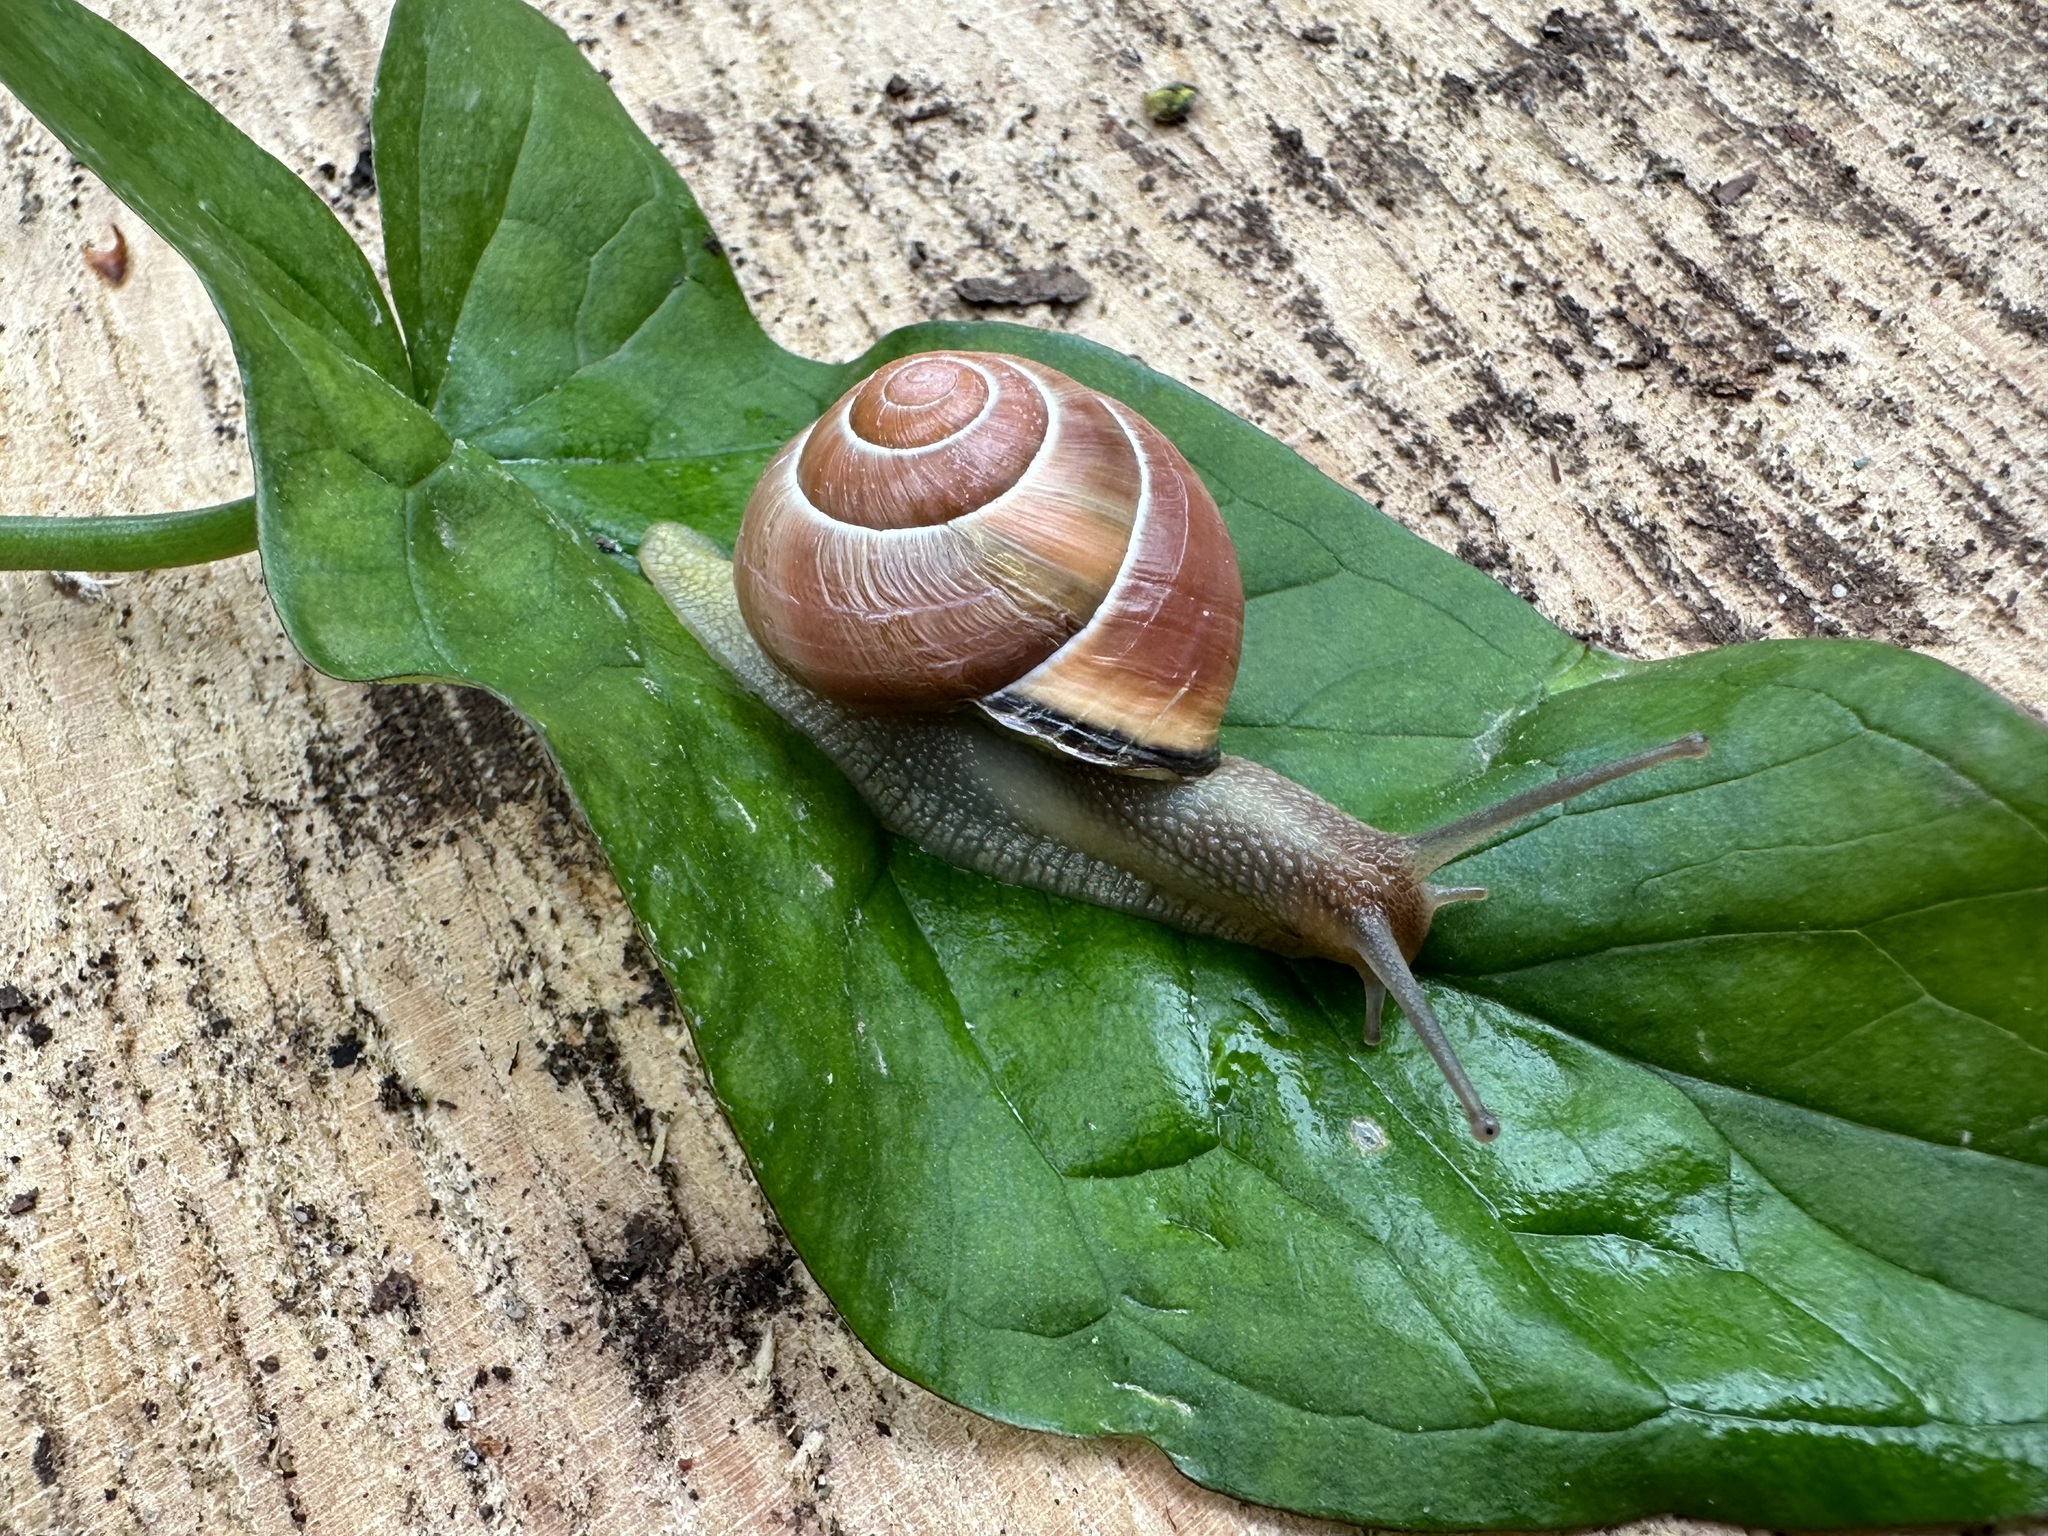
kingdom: Animalia
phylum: Mollusca
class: Gastropoda
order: Stylommatophora
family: Helicidae
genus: Cepaea
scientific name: Cepaea nemoralis
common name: Grovesnail
